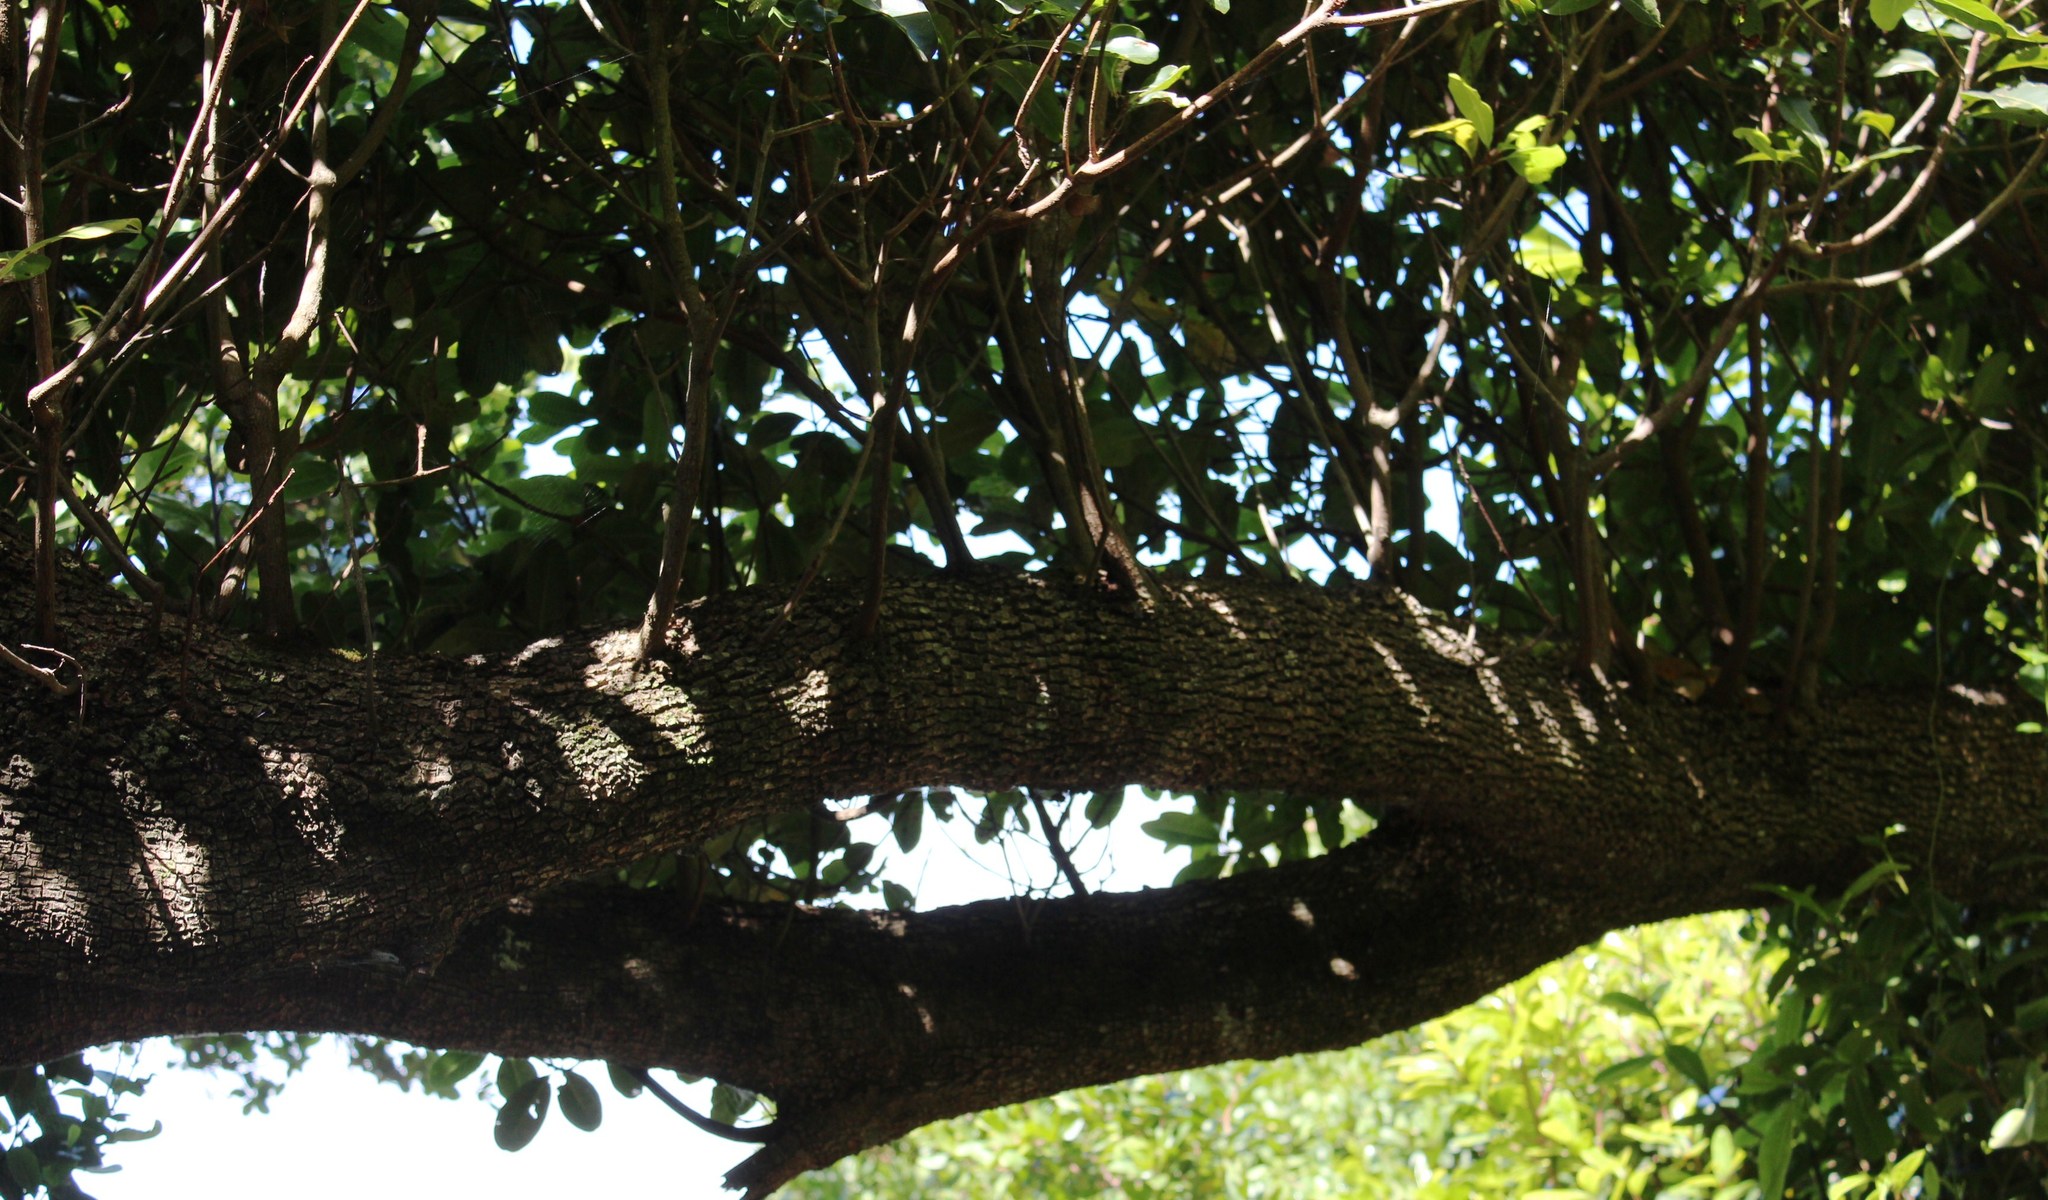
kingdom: Plantae
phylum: Tracheophyta
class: Magnoliopsida
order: Ericales
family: Sapotaceae
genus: Sideroxylon
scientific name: Sideroxylon inerme
